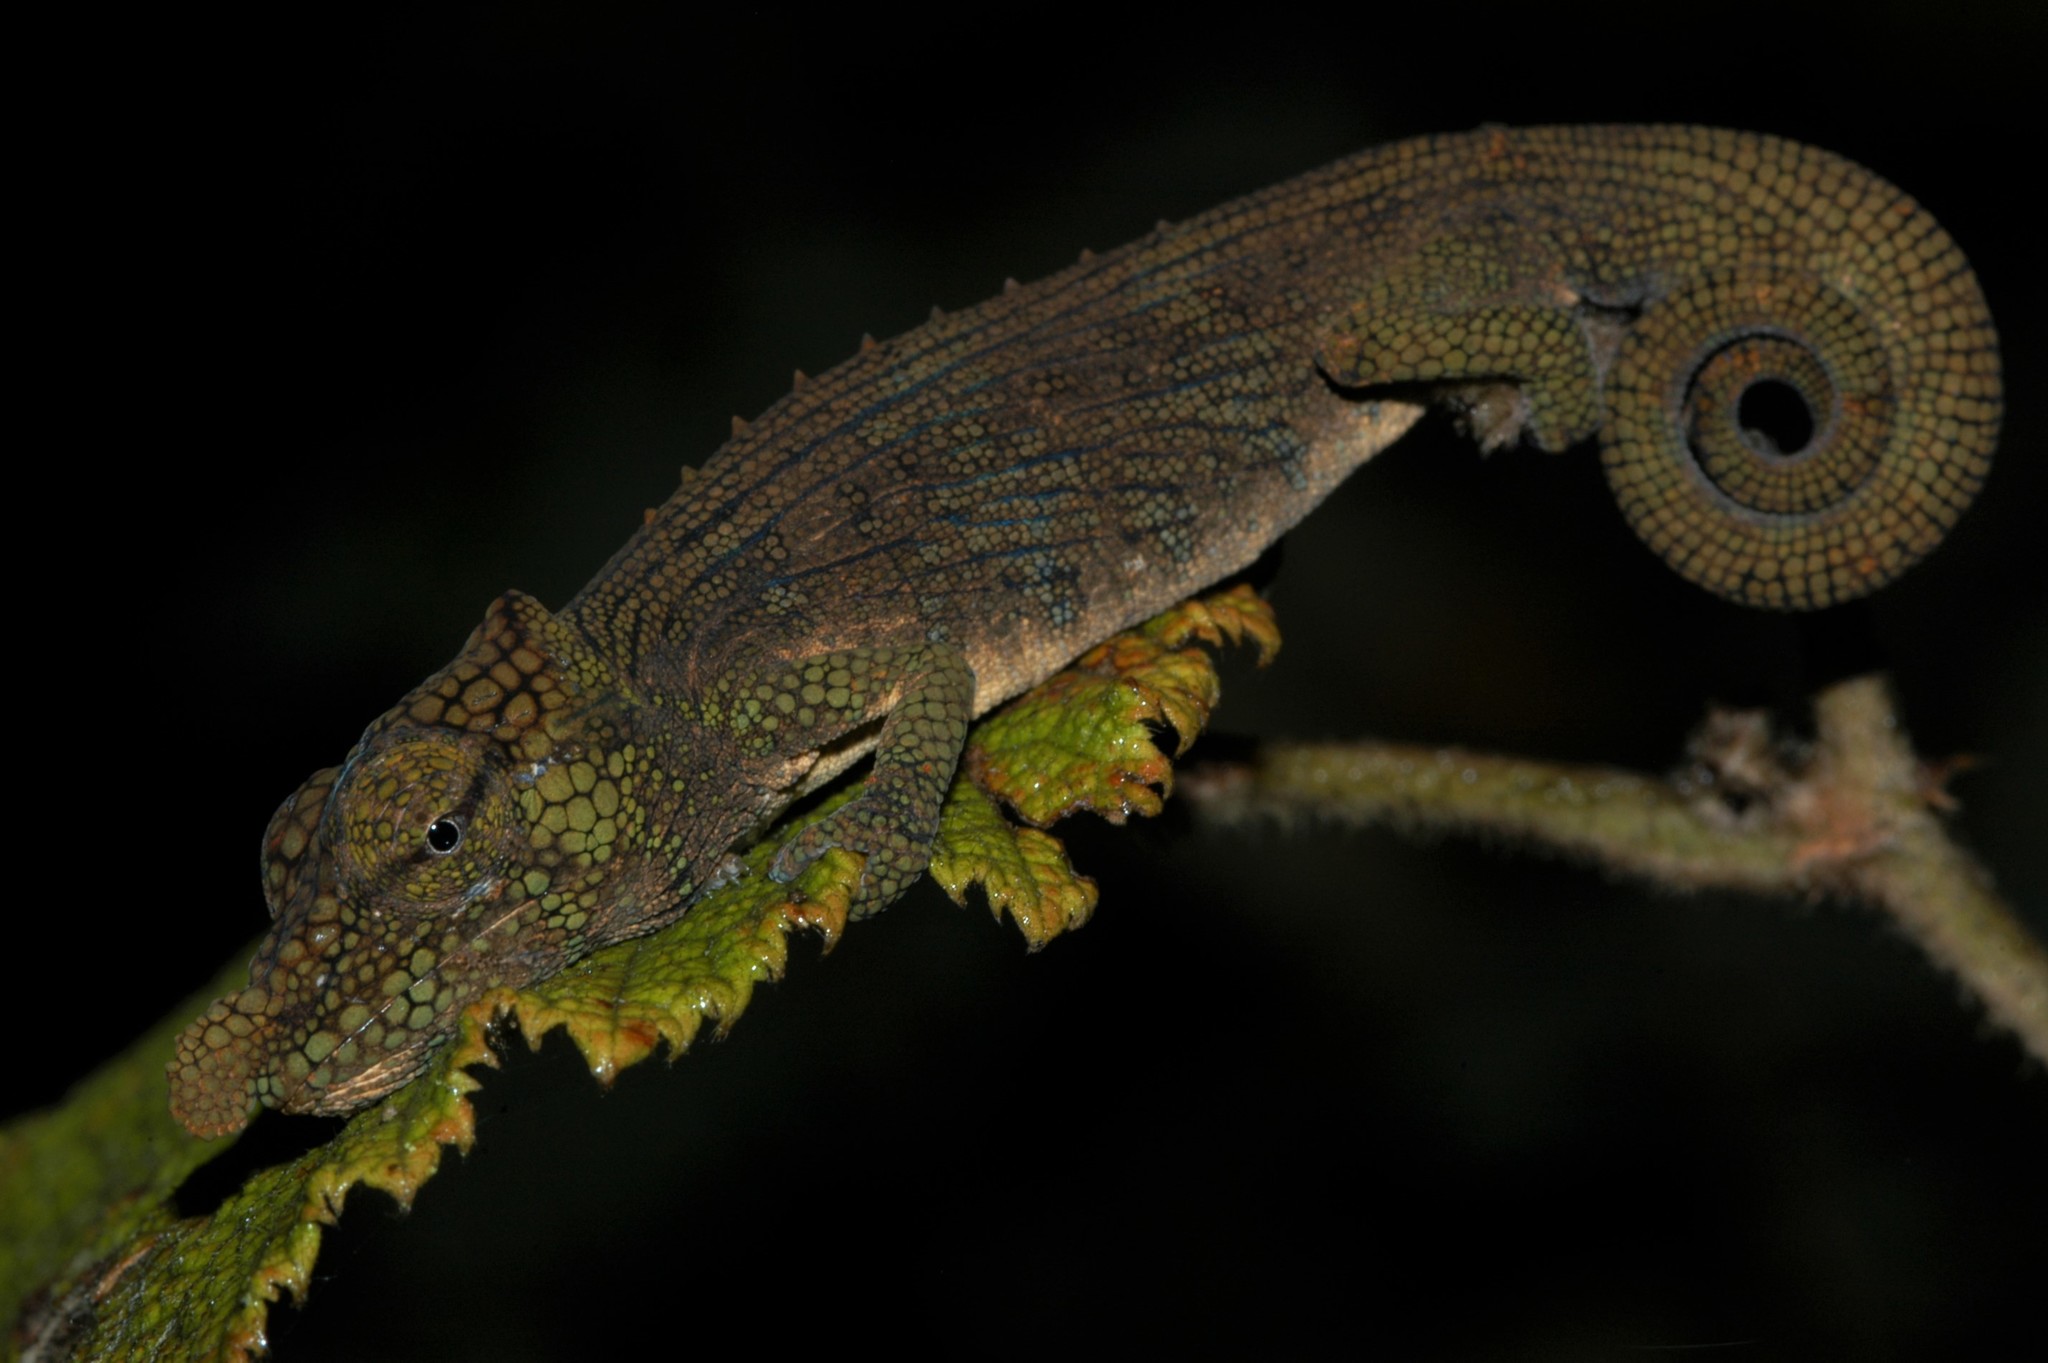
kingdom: Animalia
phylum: Chordata
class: Squamata
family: Chamaeleonidae
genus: Calumma
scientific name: Calumma nasutum
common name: Nose-horned chameleon
